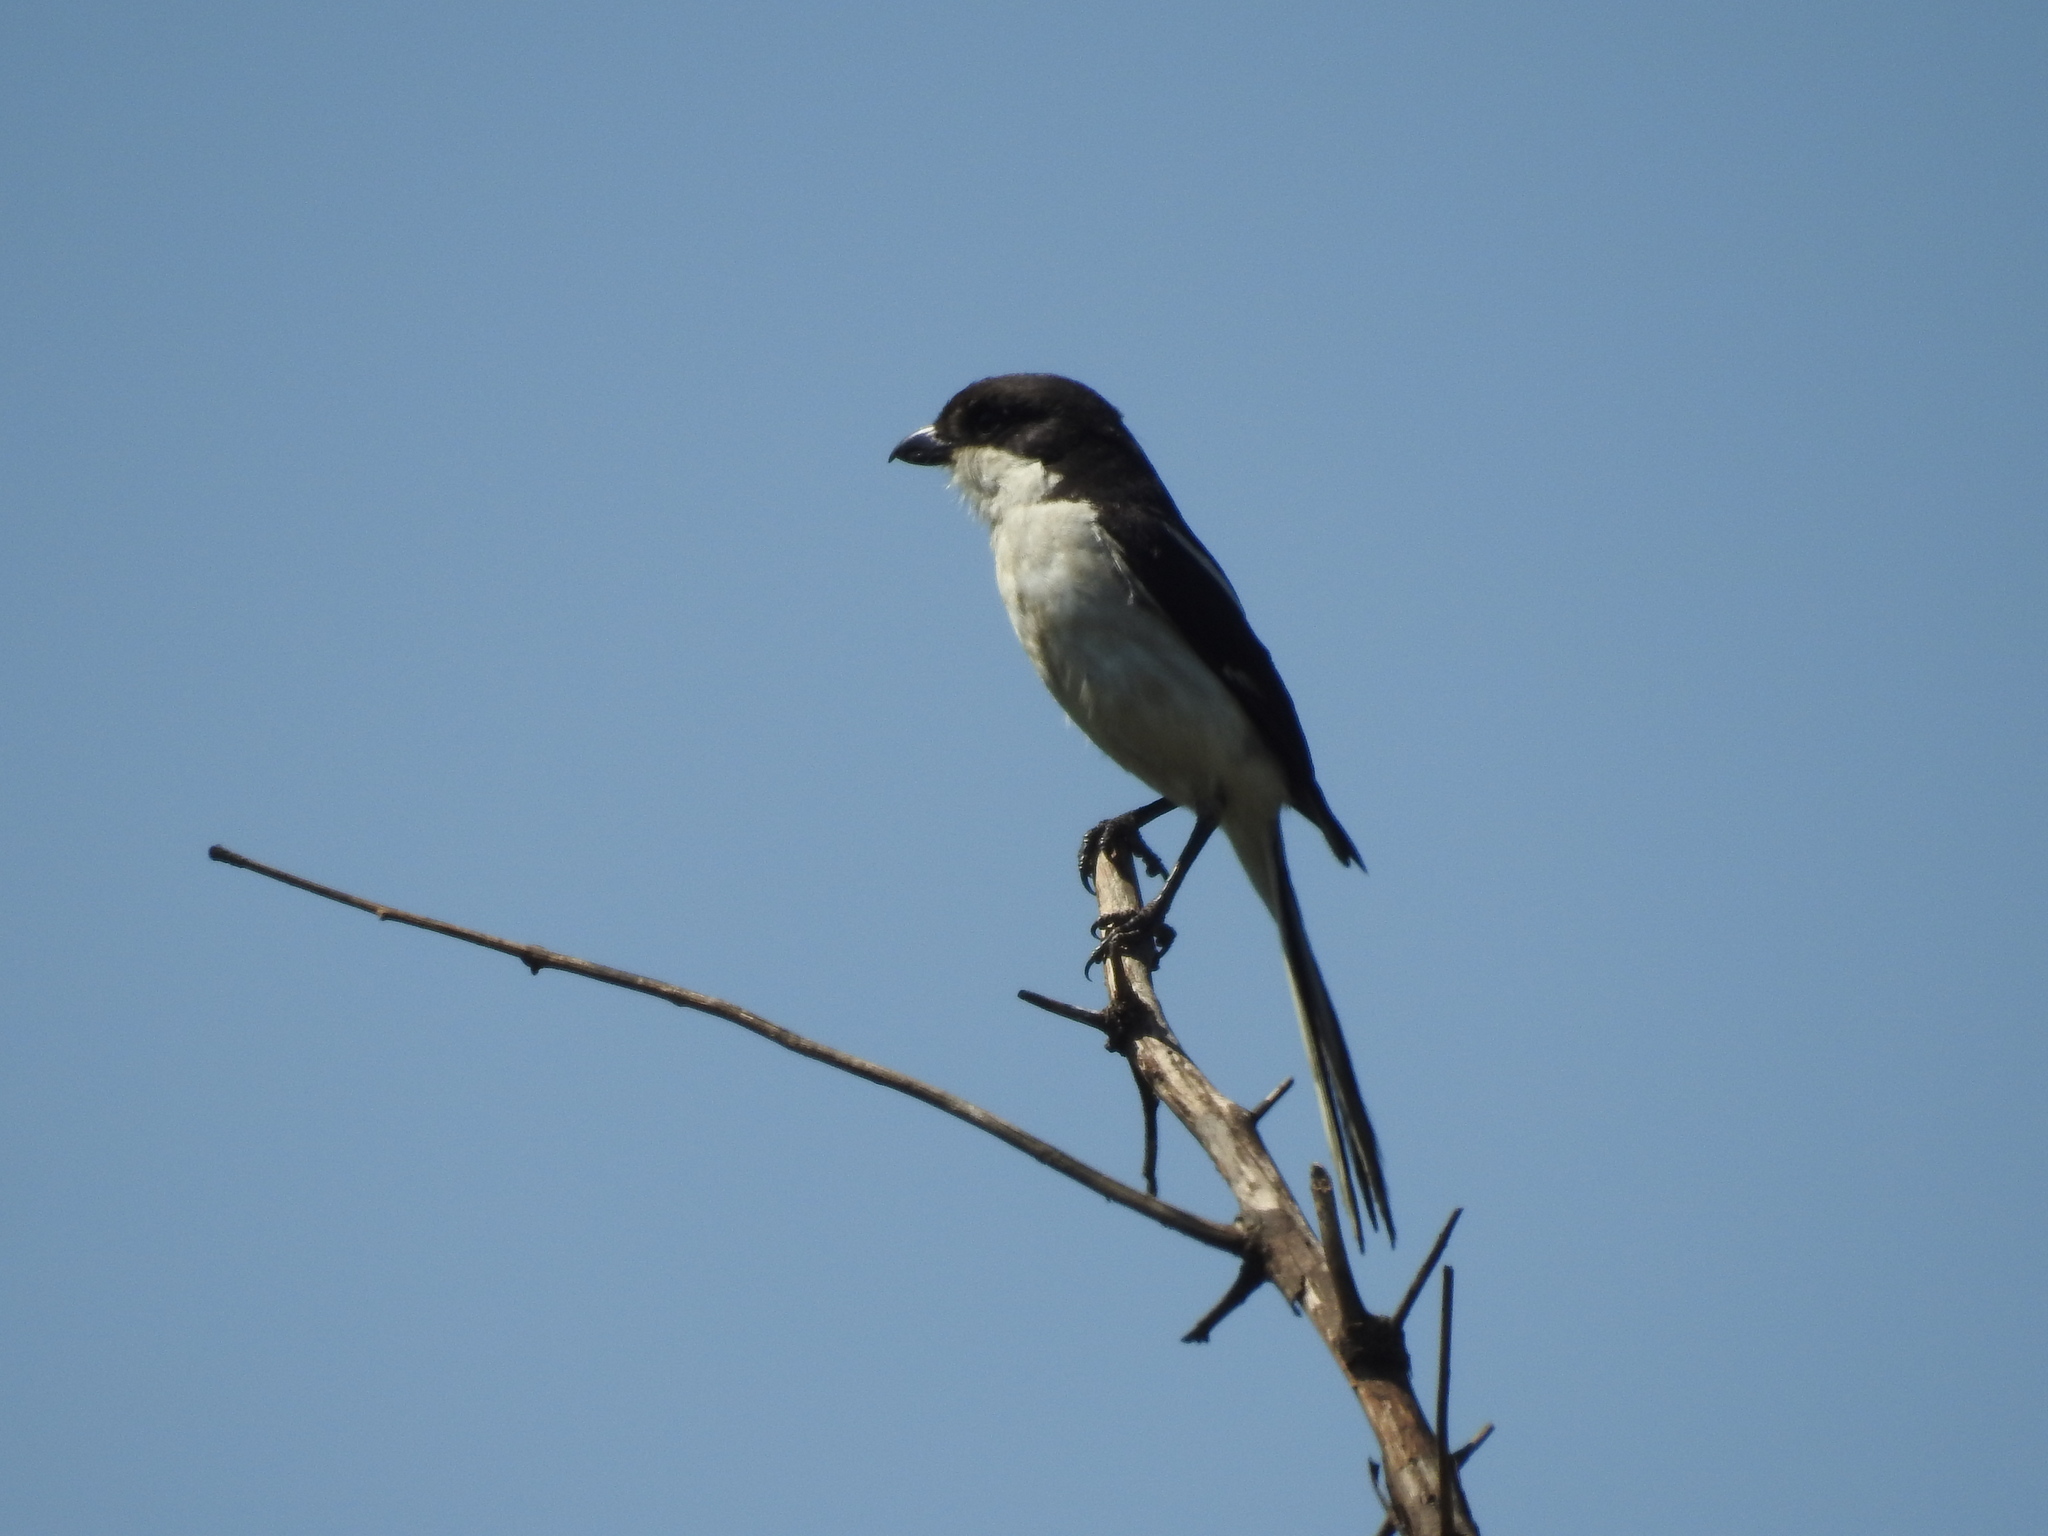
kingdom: Animalia
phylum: Chordata
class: Aves
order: Passeriformes
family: Laniidae
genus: Lanius
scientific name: Lanius collaris
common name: Southern fiscal
